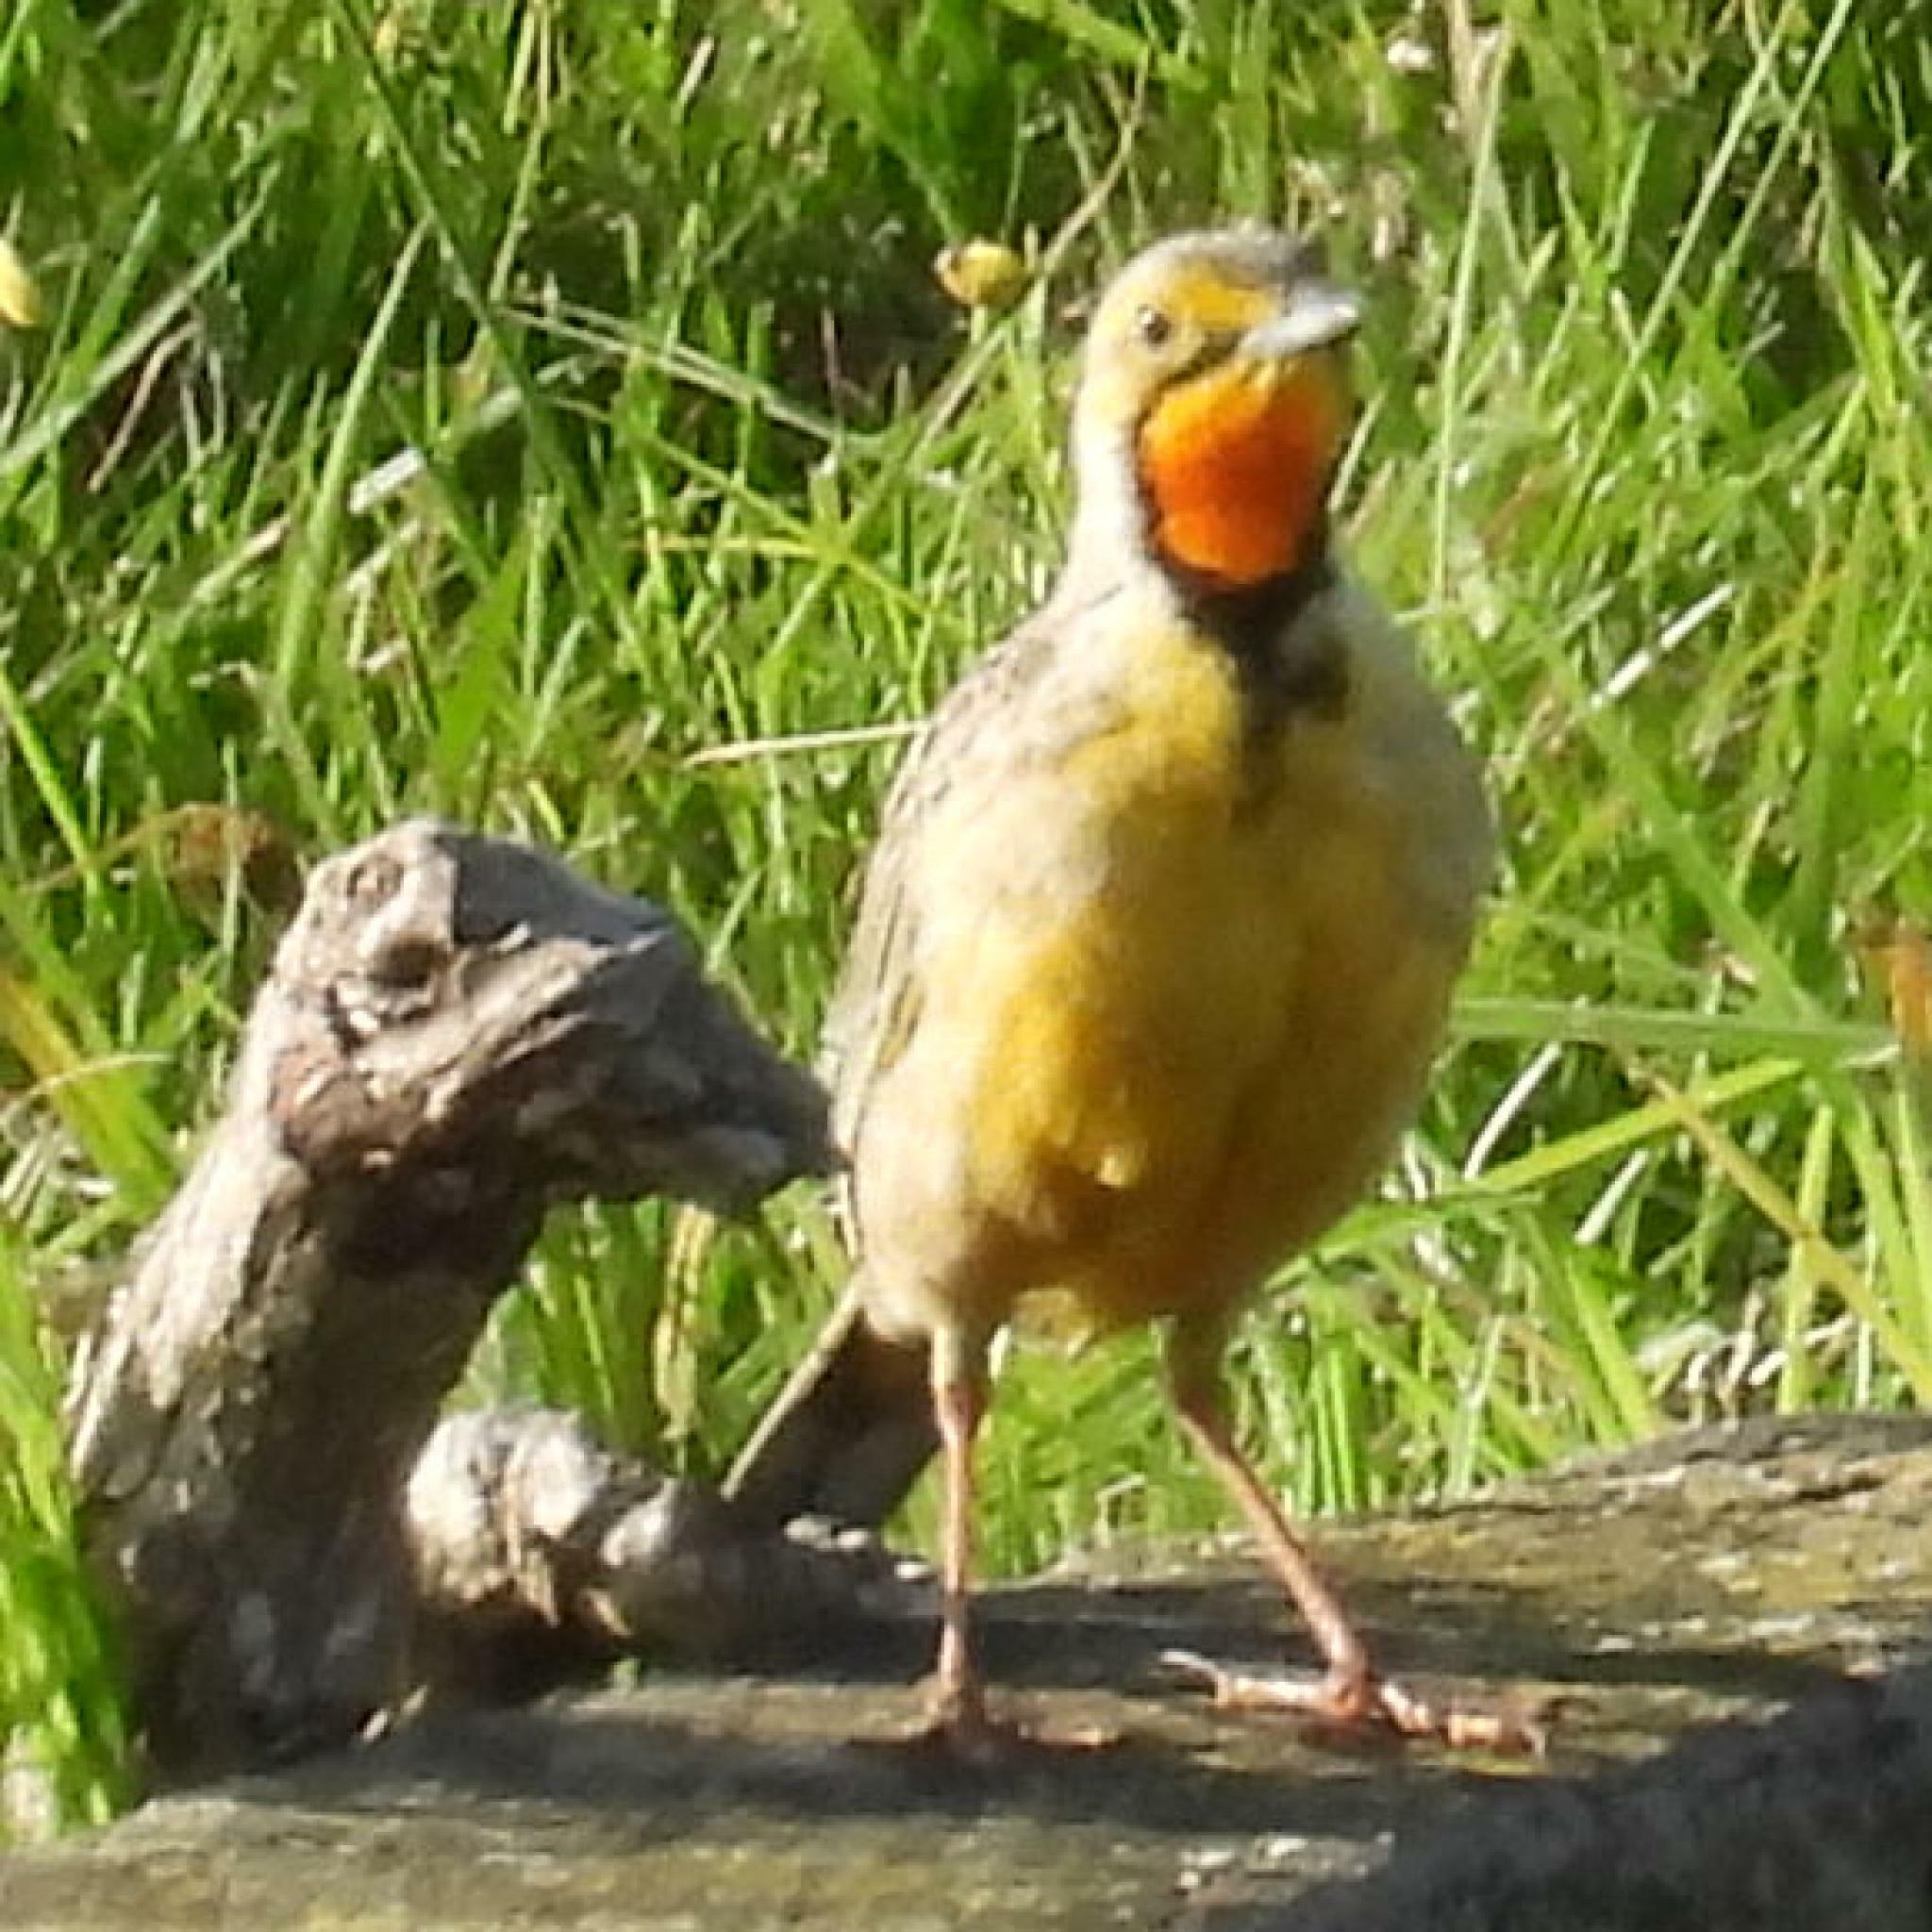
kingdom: Animalia
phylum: Chordata
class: Aves
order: Passeriformes
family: Motacillidae
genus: Macronyx
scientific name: Macronyx capensis
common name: Cape longclaw
